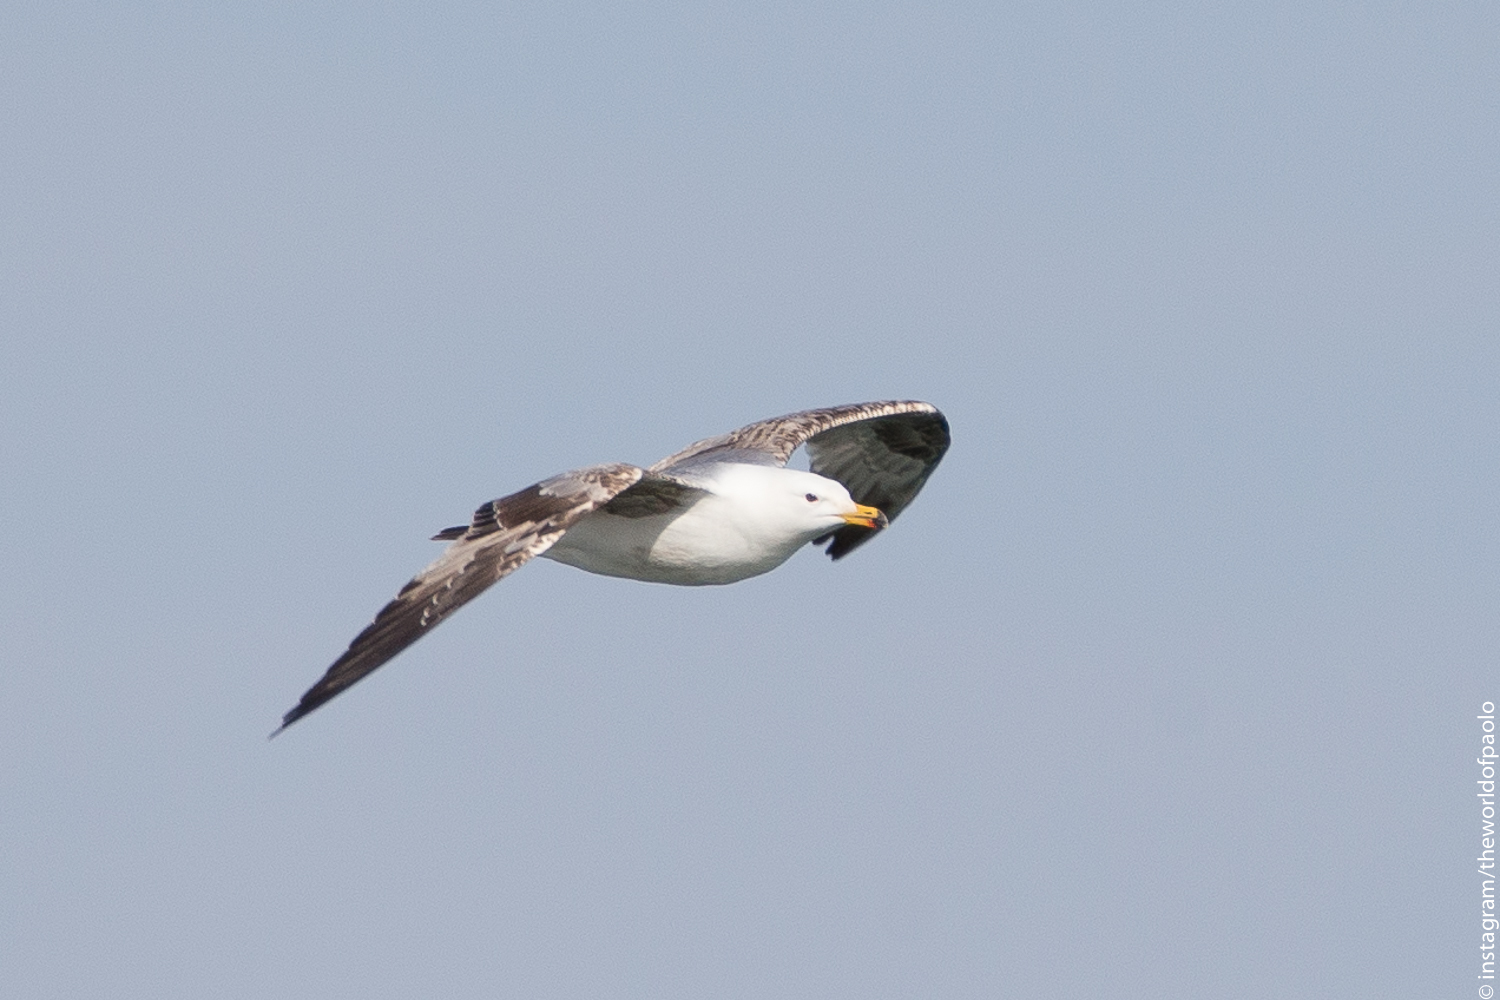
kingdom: Animalia
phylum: Chordata
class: Aves
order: Charadriiformes
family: Laridae
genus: Larus
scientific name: Larus michahellis
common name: Yellow-legged gull
